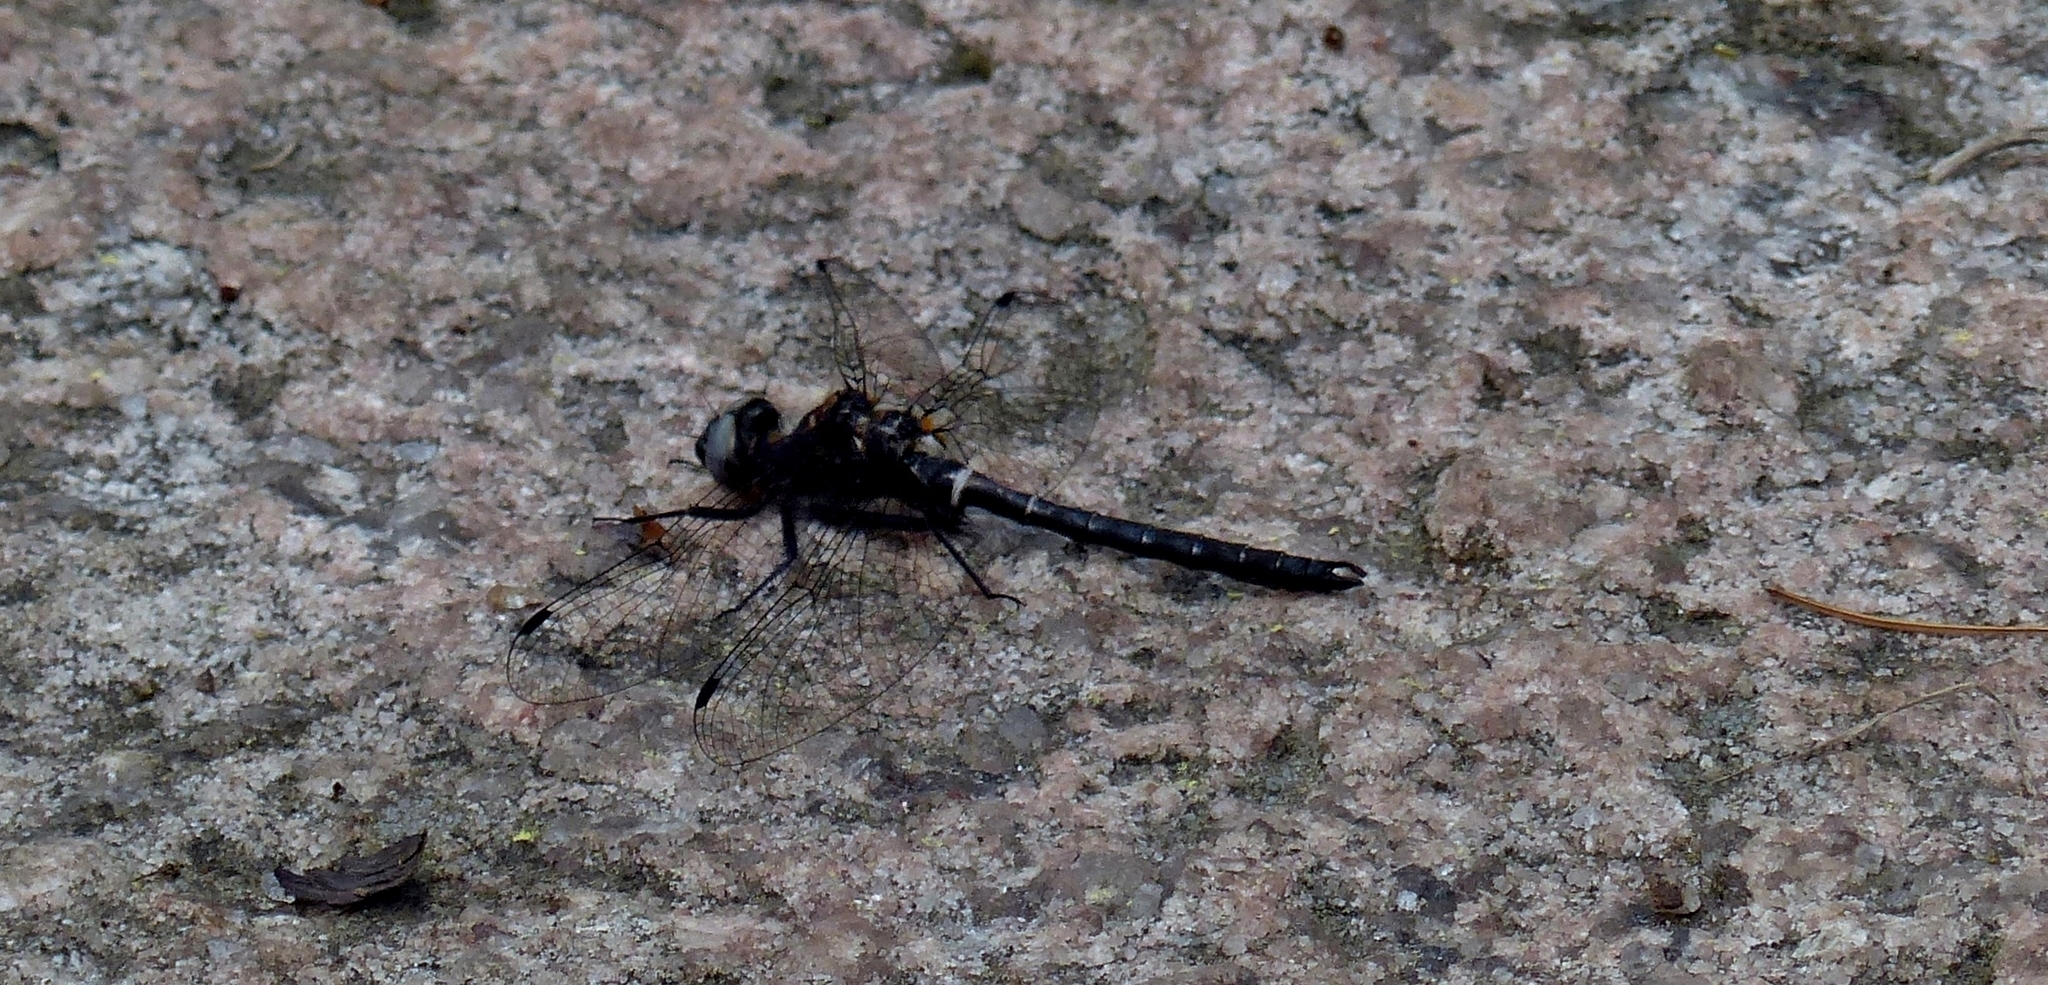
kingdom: Animalia
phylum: Arthropoda
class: Insecta
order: Odonata
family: Corduliidae
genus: Williamsonia
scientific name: Williamsonia fletcheri
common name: Ebony boghaunter
